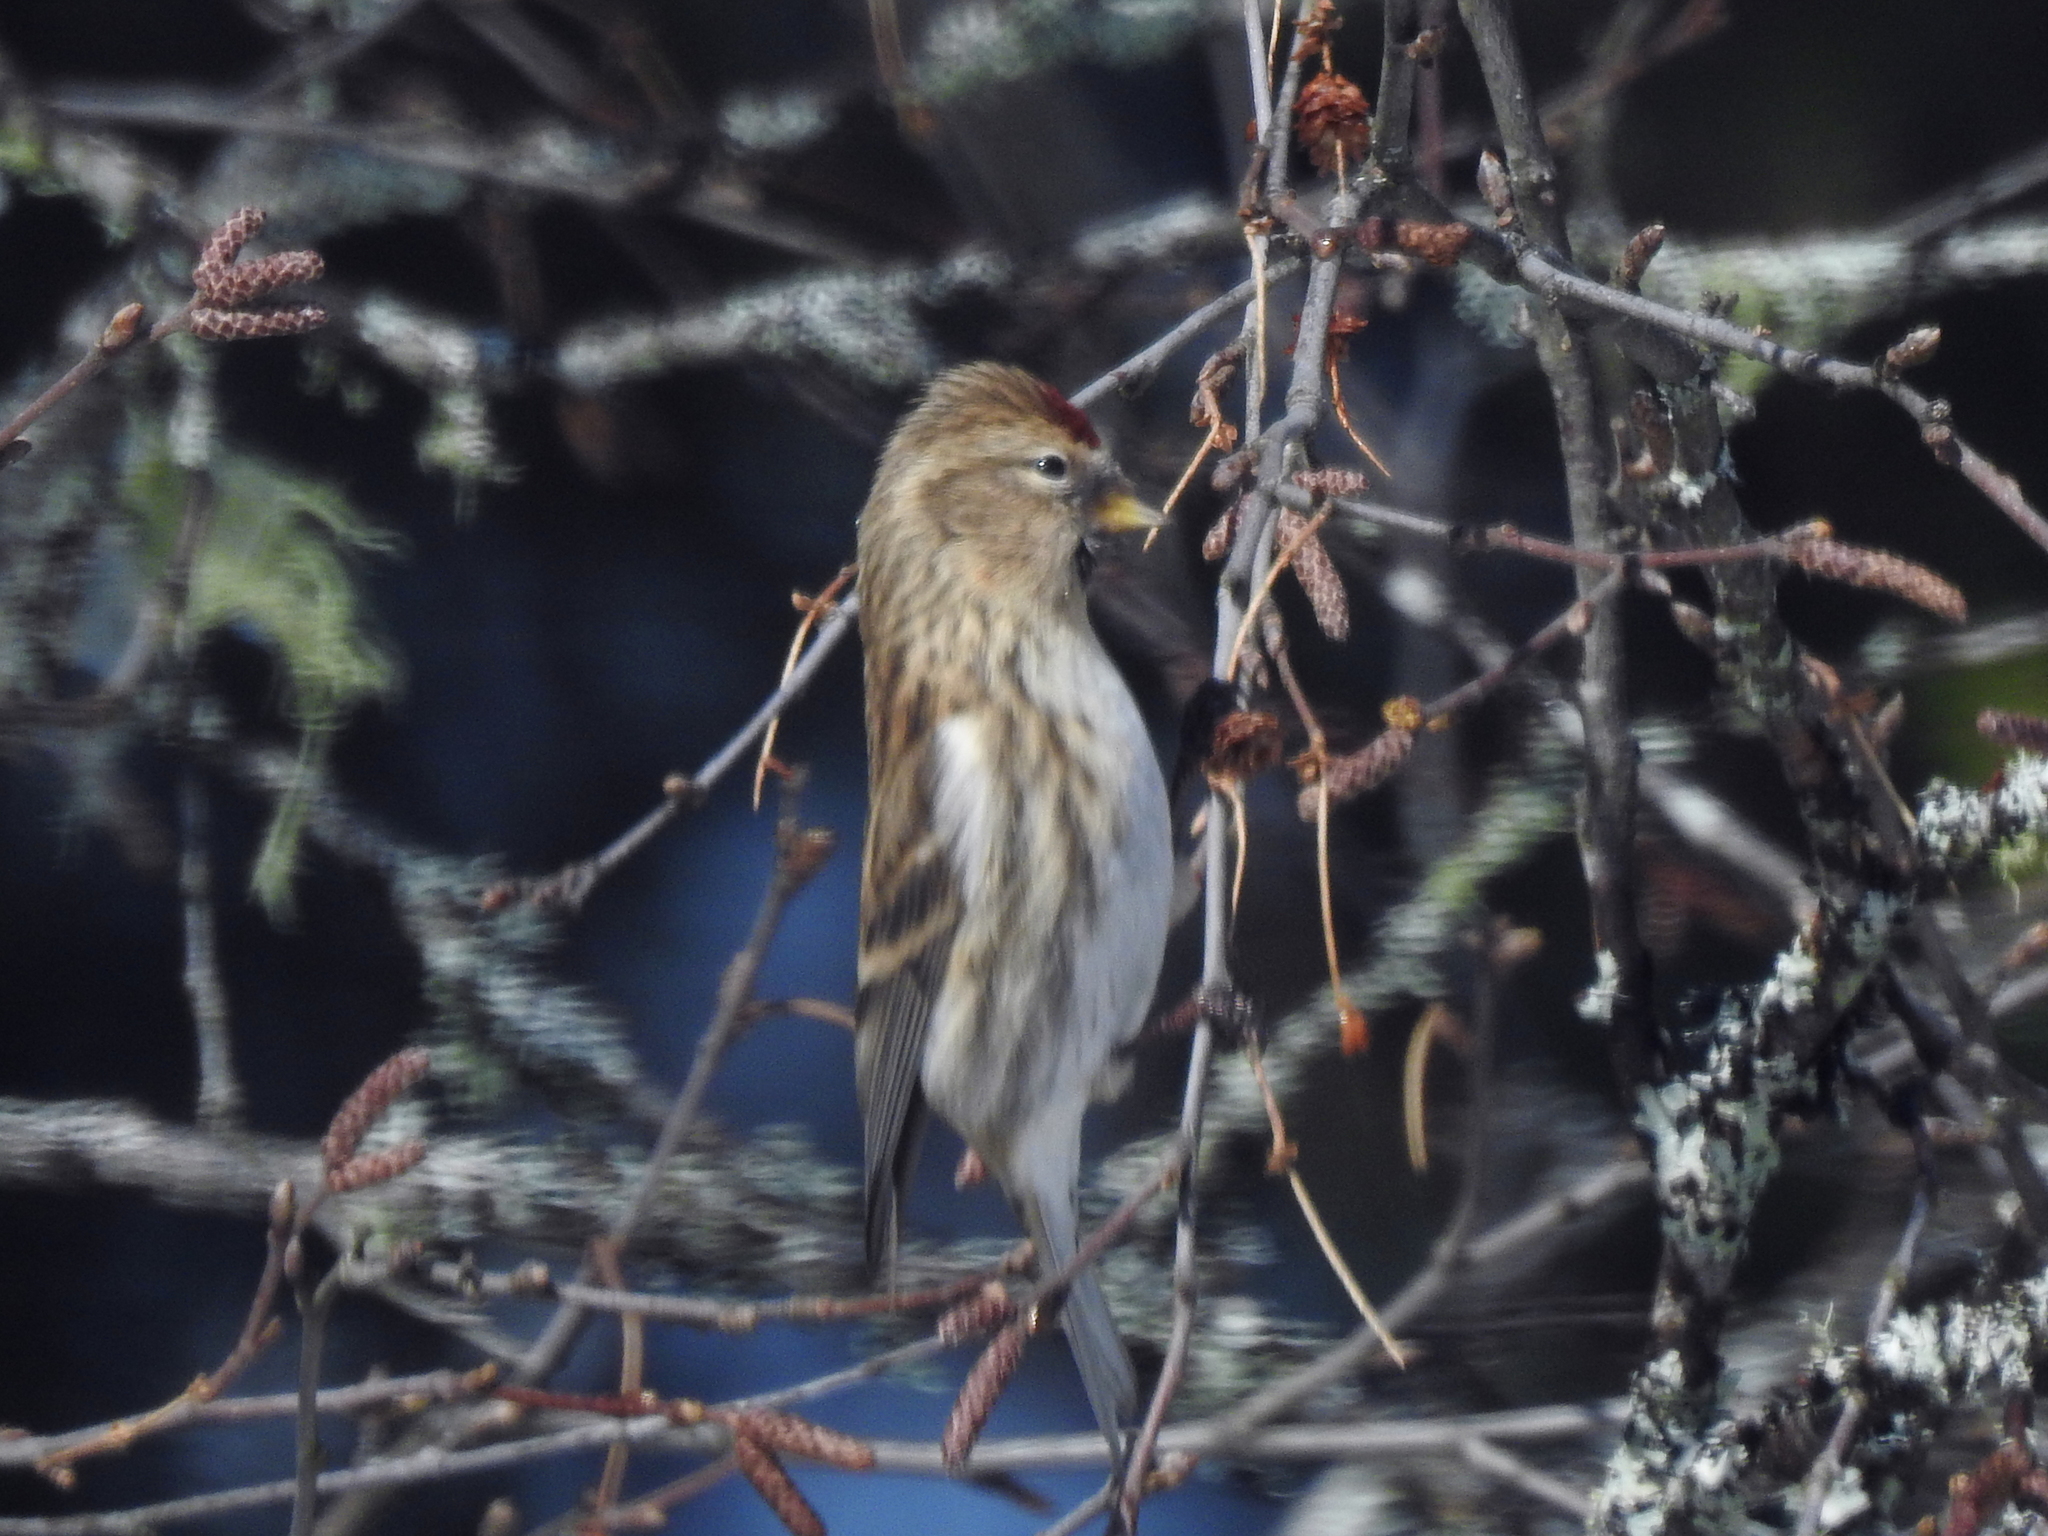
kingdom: Animalia
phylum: Chordata
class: Aves
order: Passeriformes
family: Fringillidae
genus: Acanthis
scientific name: Acanthis flammea
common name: Common redpoll
